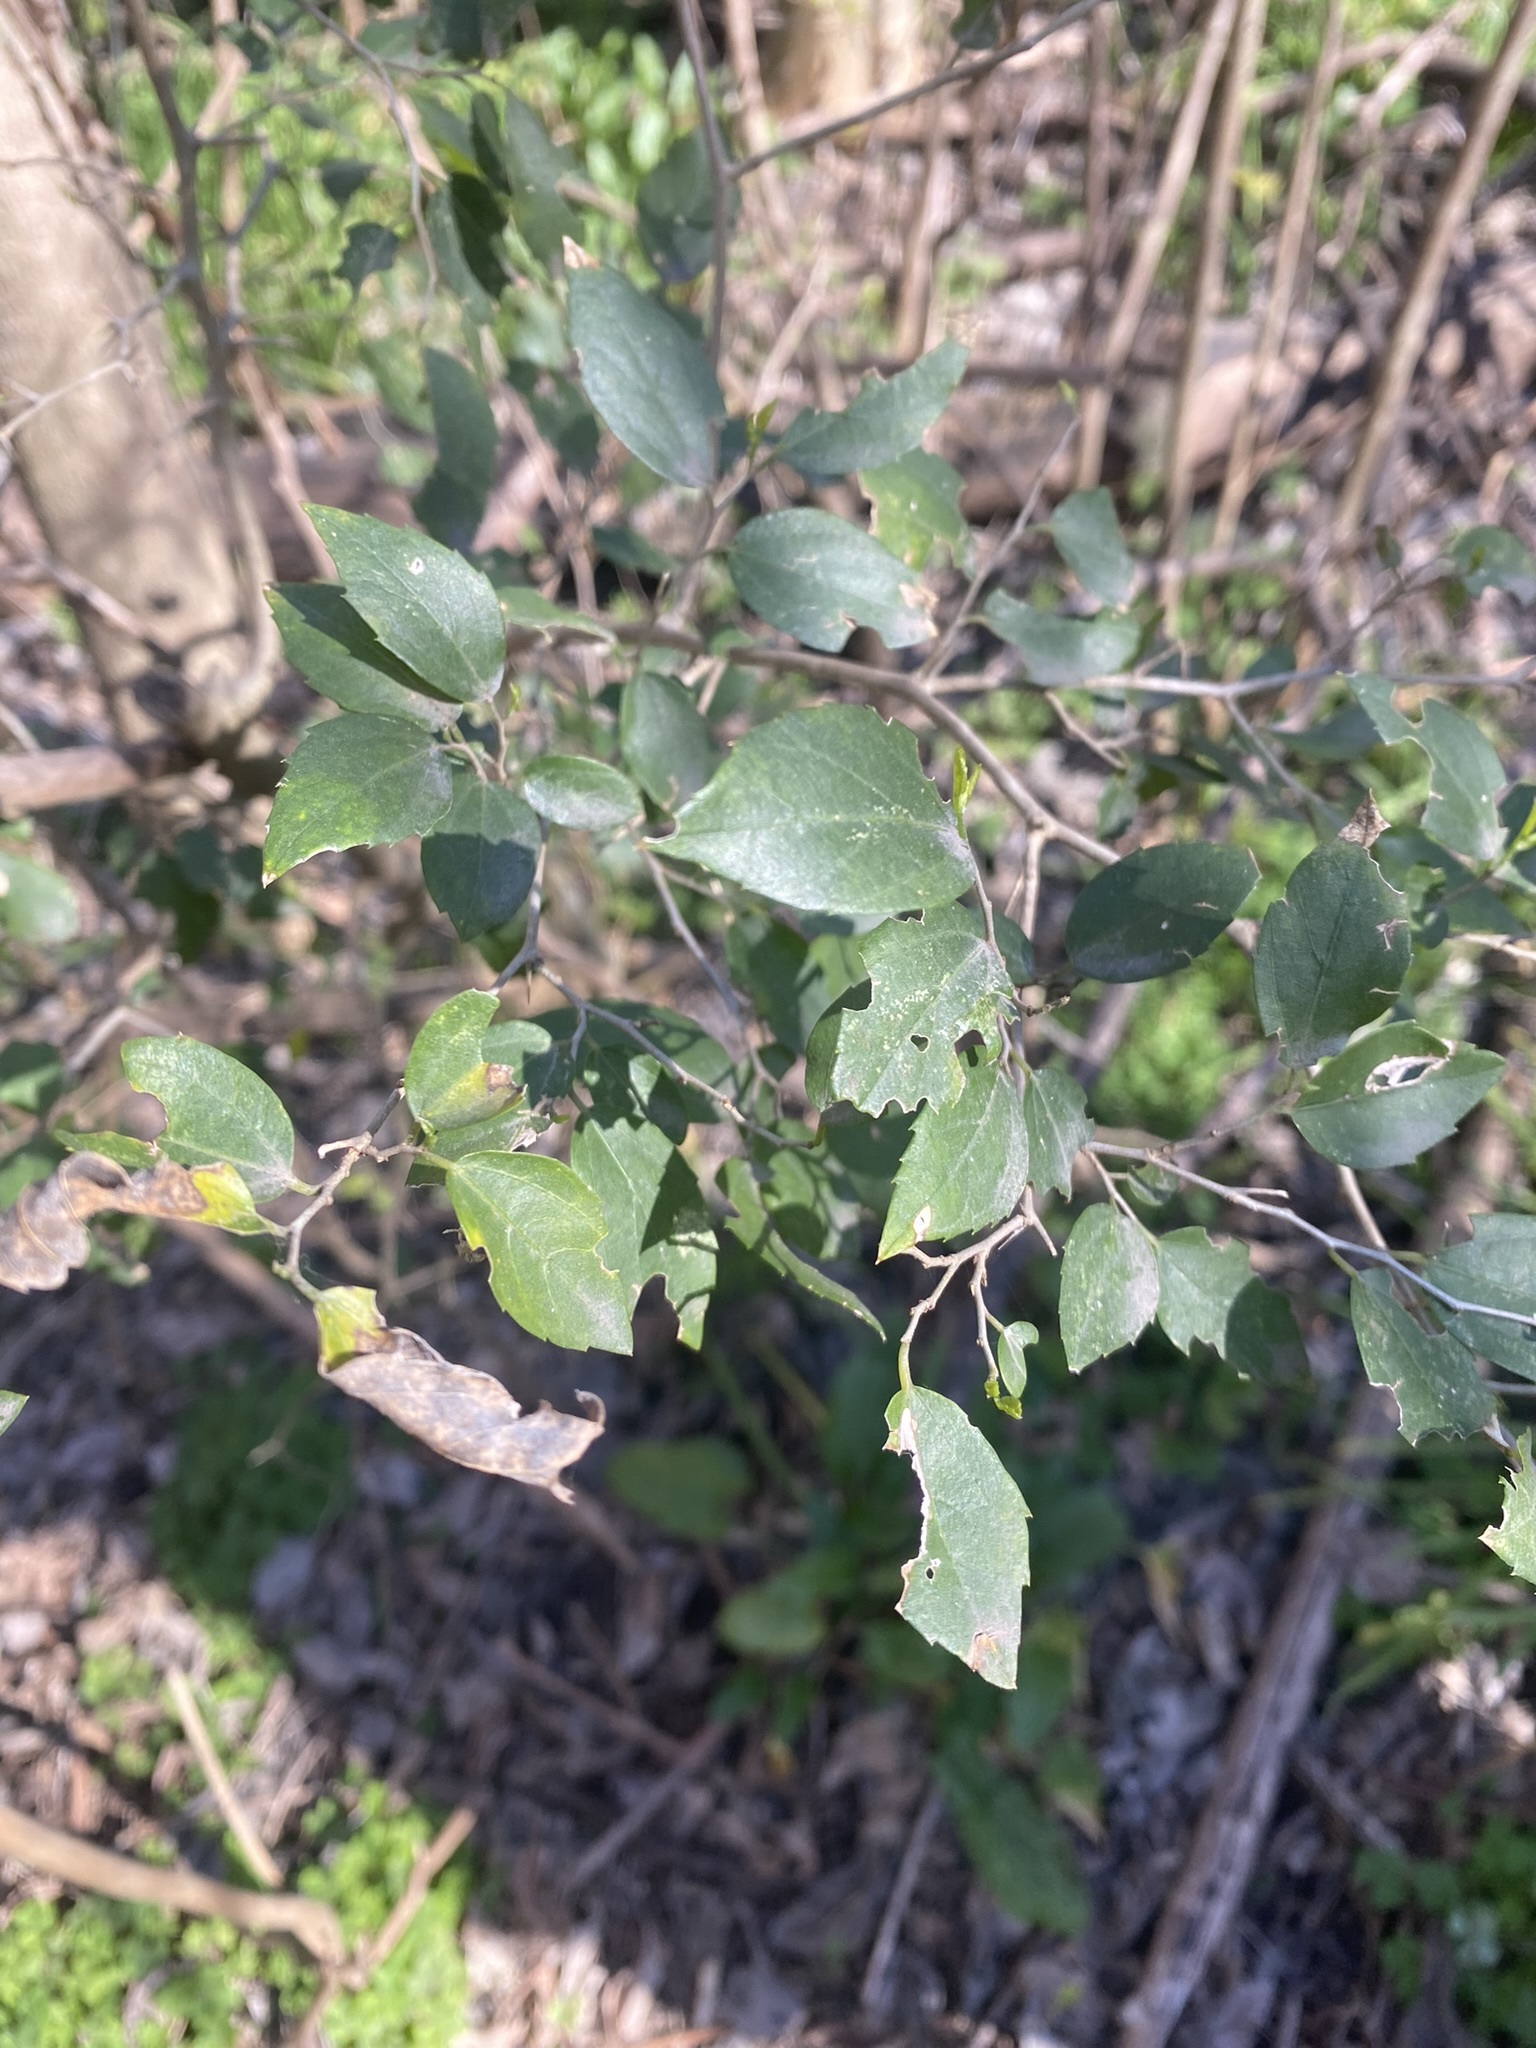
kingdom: Plantae
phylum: Tracheophyta
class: Magnoliopsida
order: Rosales
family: Cannabaceae
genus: Celtis
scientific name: Celtis tala
